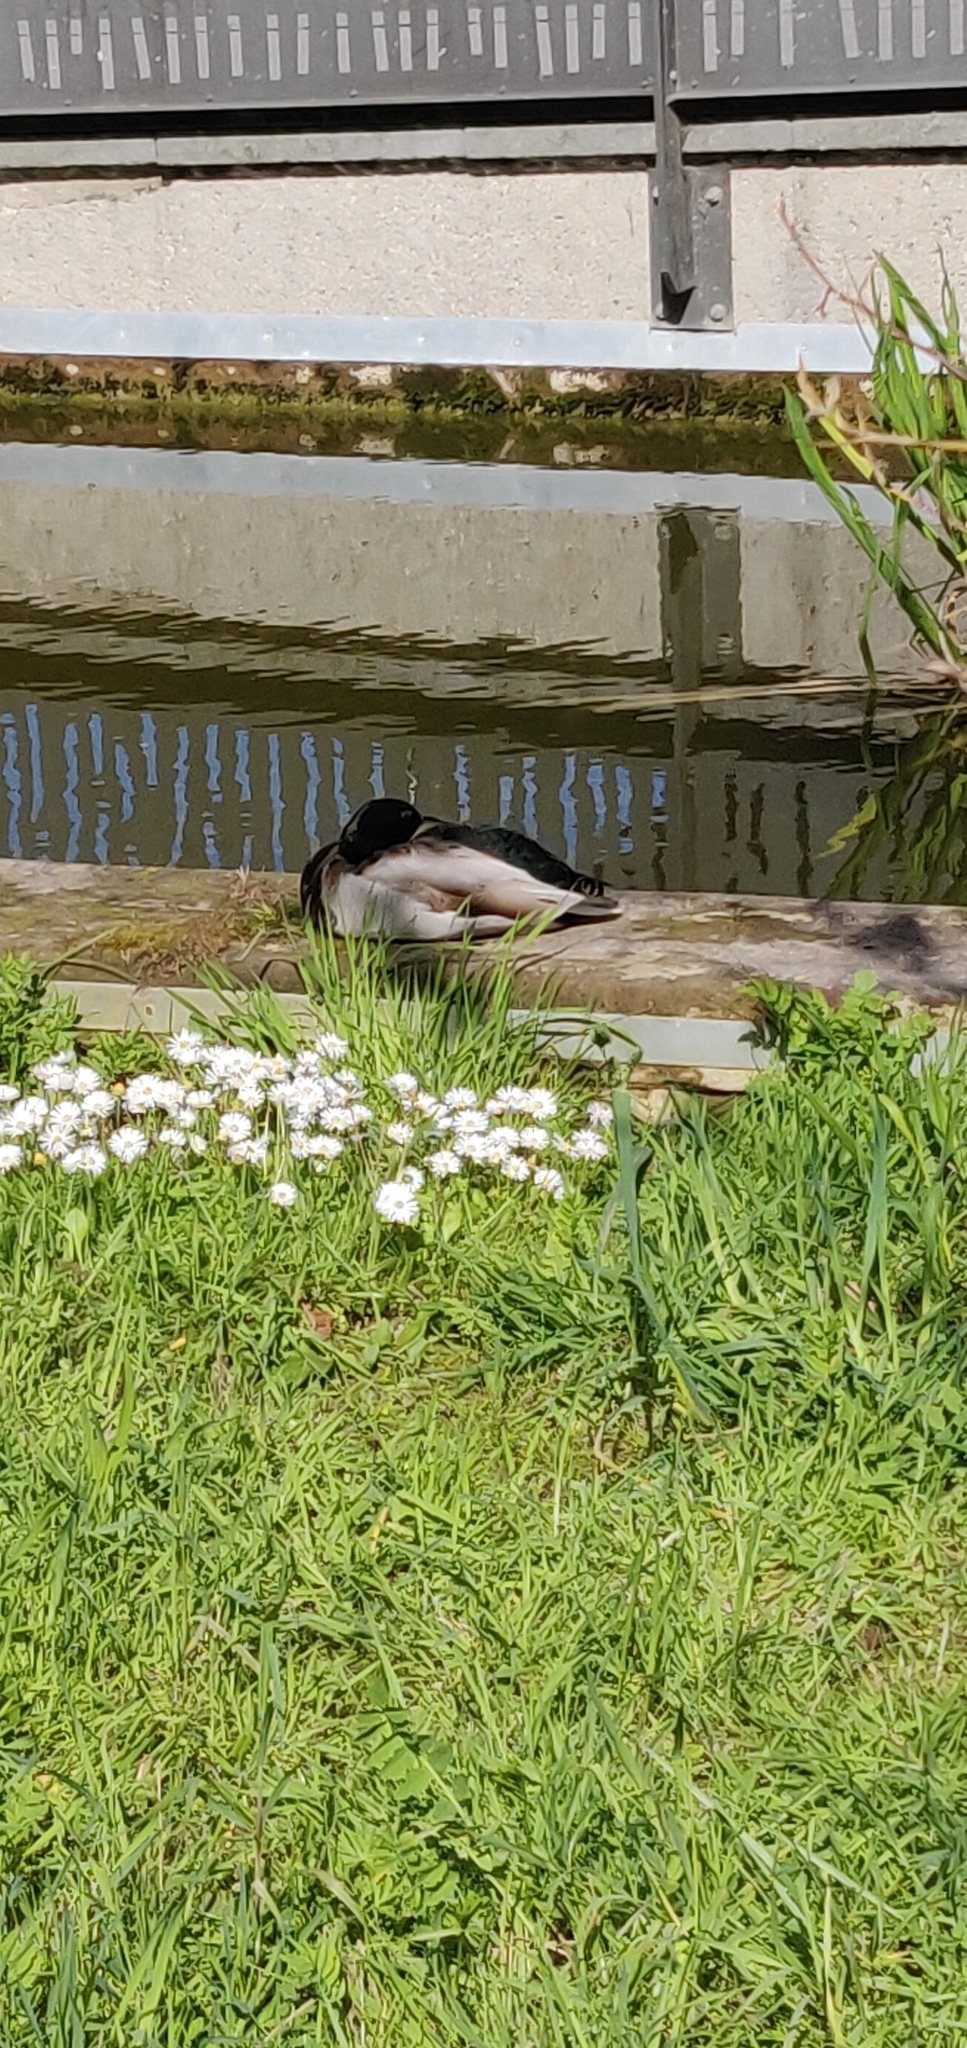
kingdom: Animalia
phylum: Chordata
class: Aves
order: Anseriformes
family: Anatidae
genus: Anas
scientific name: Anas platyrhynchos
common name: Mallard
